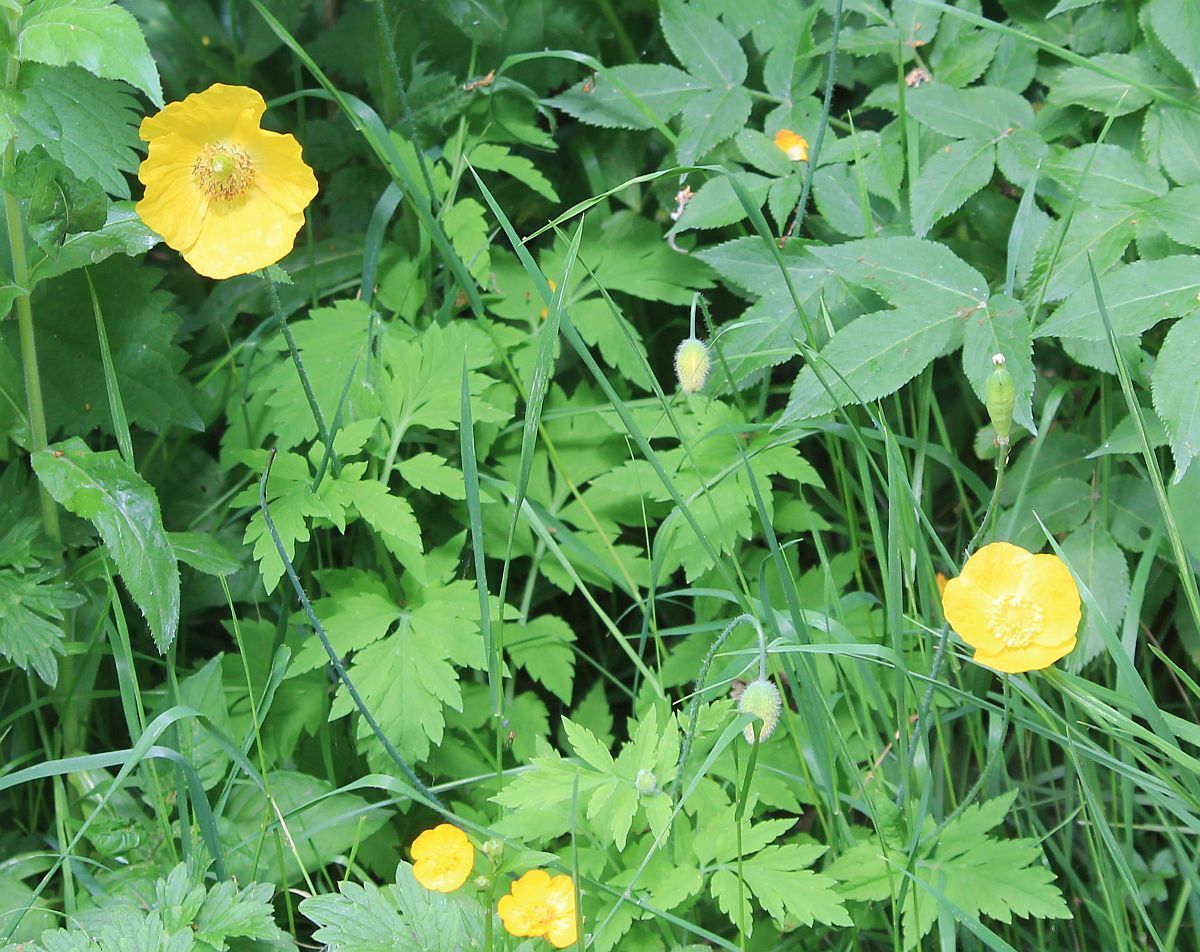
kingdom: Plantae
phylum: Tracheophyta
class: Magnoliopsida
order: Ranunculales
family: Papaveraceae
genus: Papaver
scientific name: Papaver cambricum
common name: Poppy
